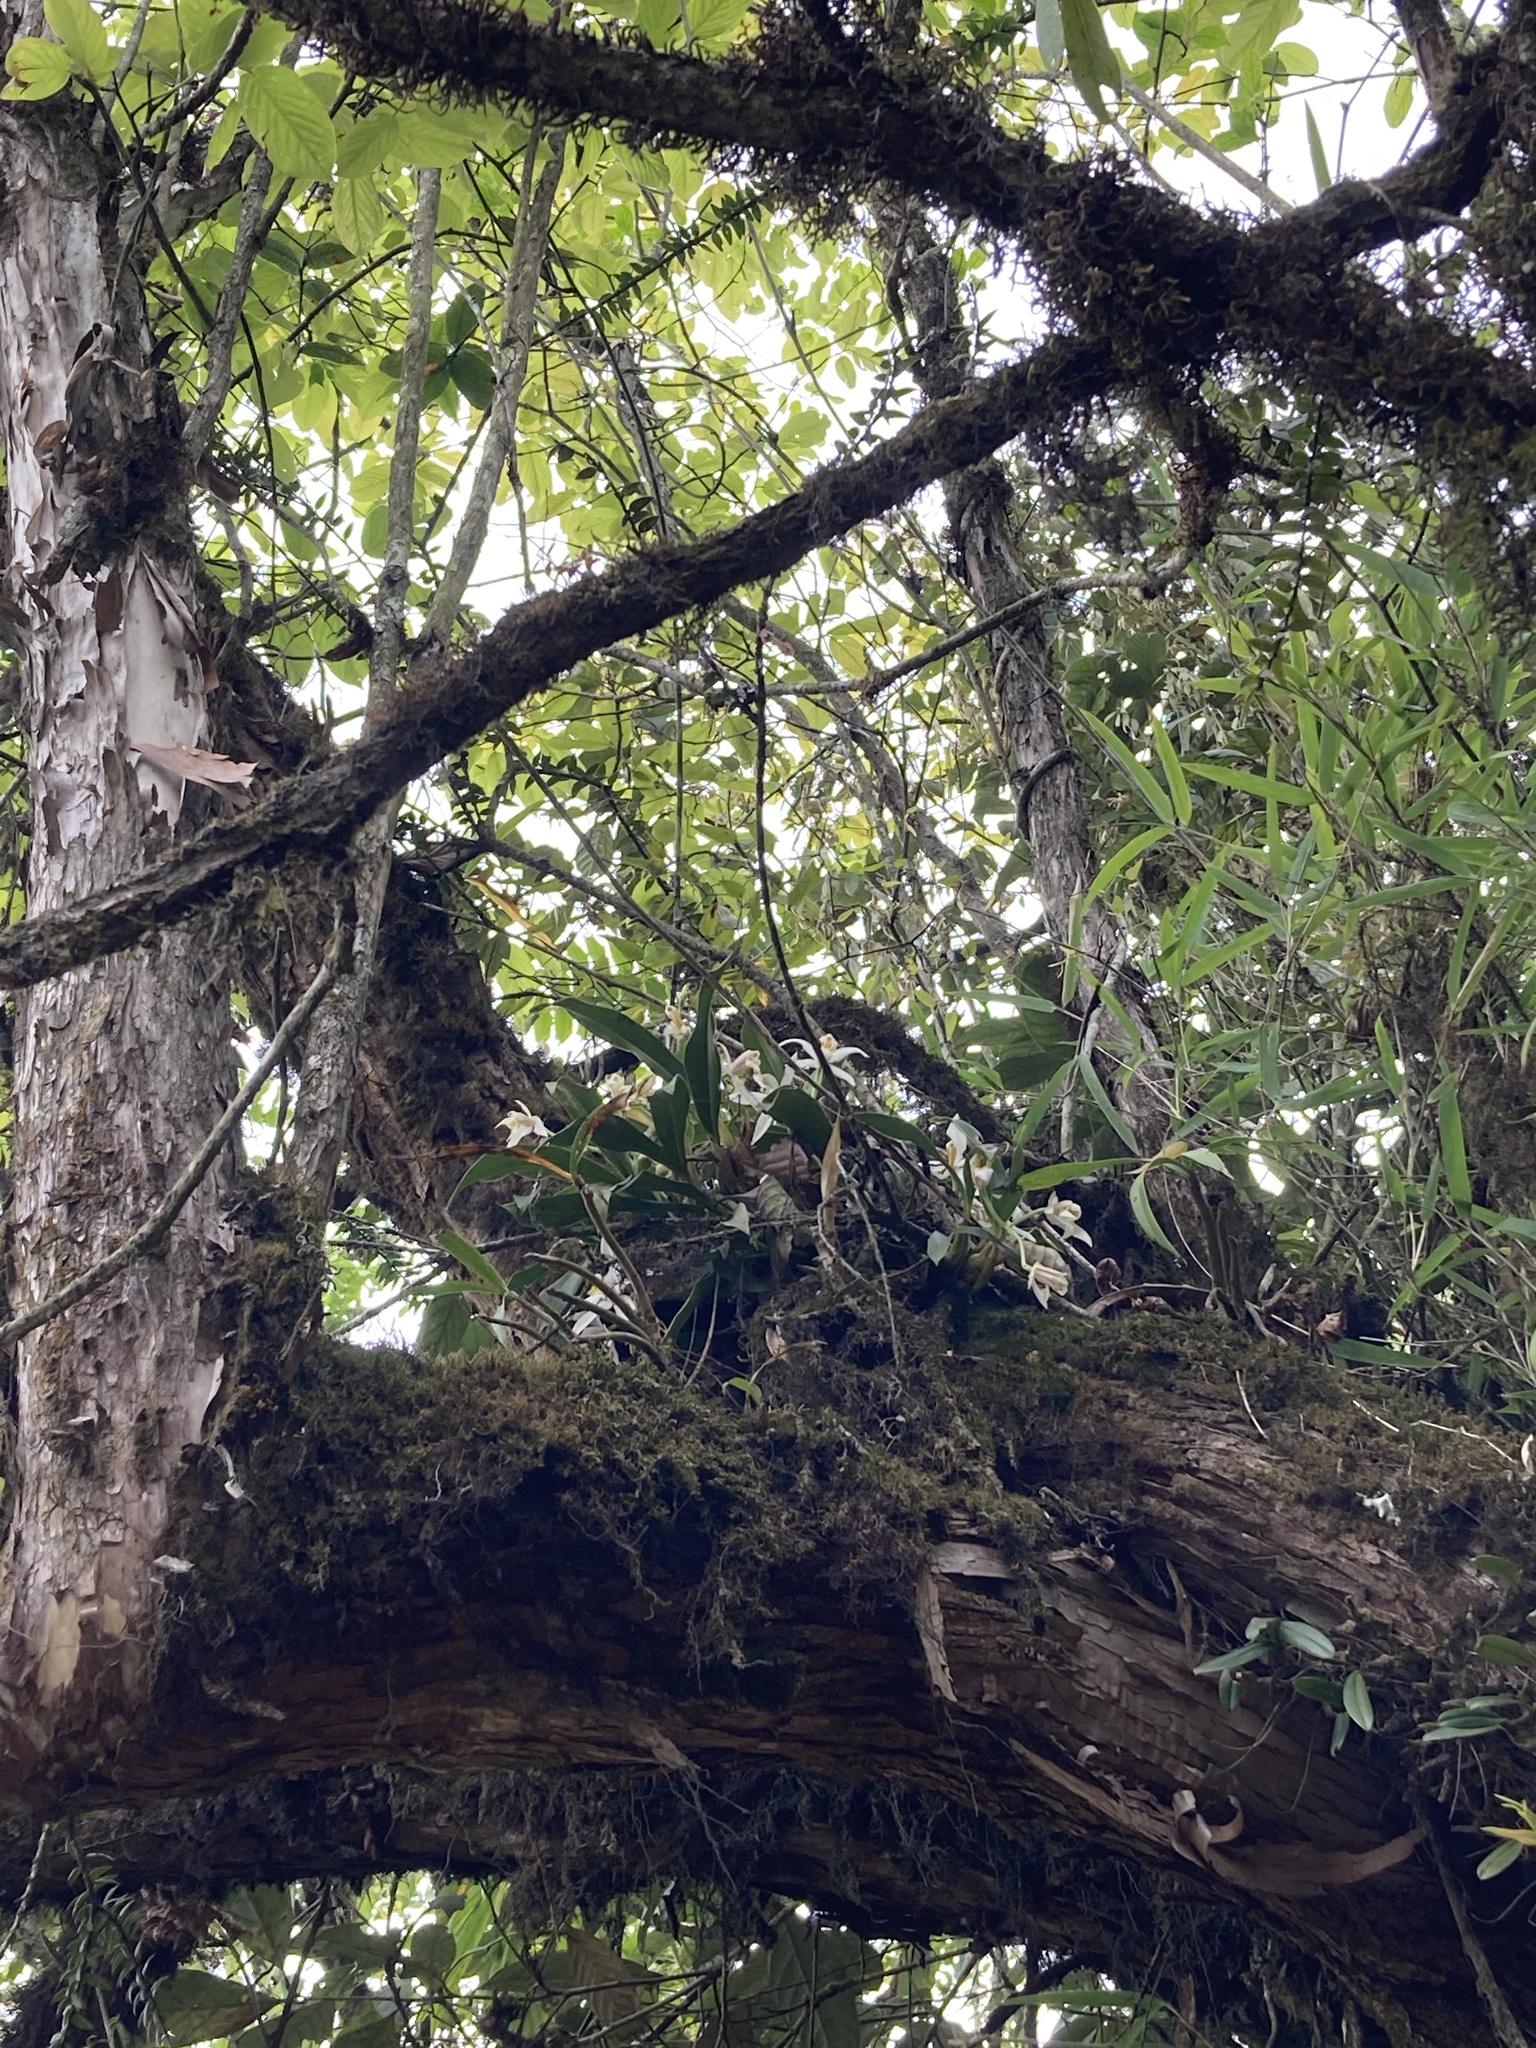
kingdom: Plantae
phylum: Tracheophyta
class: Magnoliopsida
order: Fagales
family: Betulaceae
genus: Alnus
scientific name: Alnus nepalensis
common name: Nepal alder
